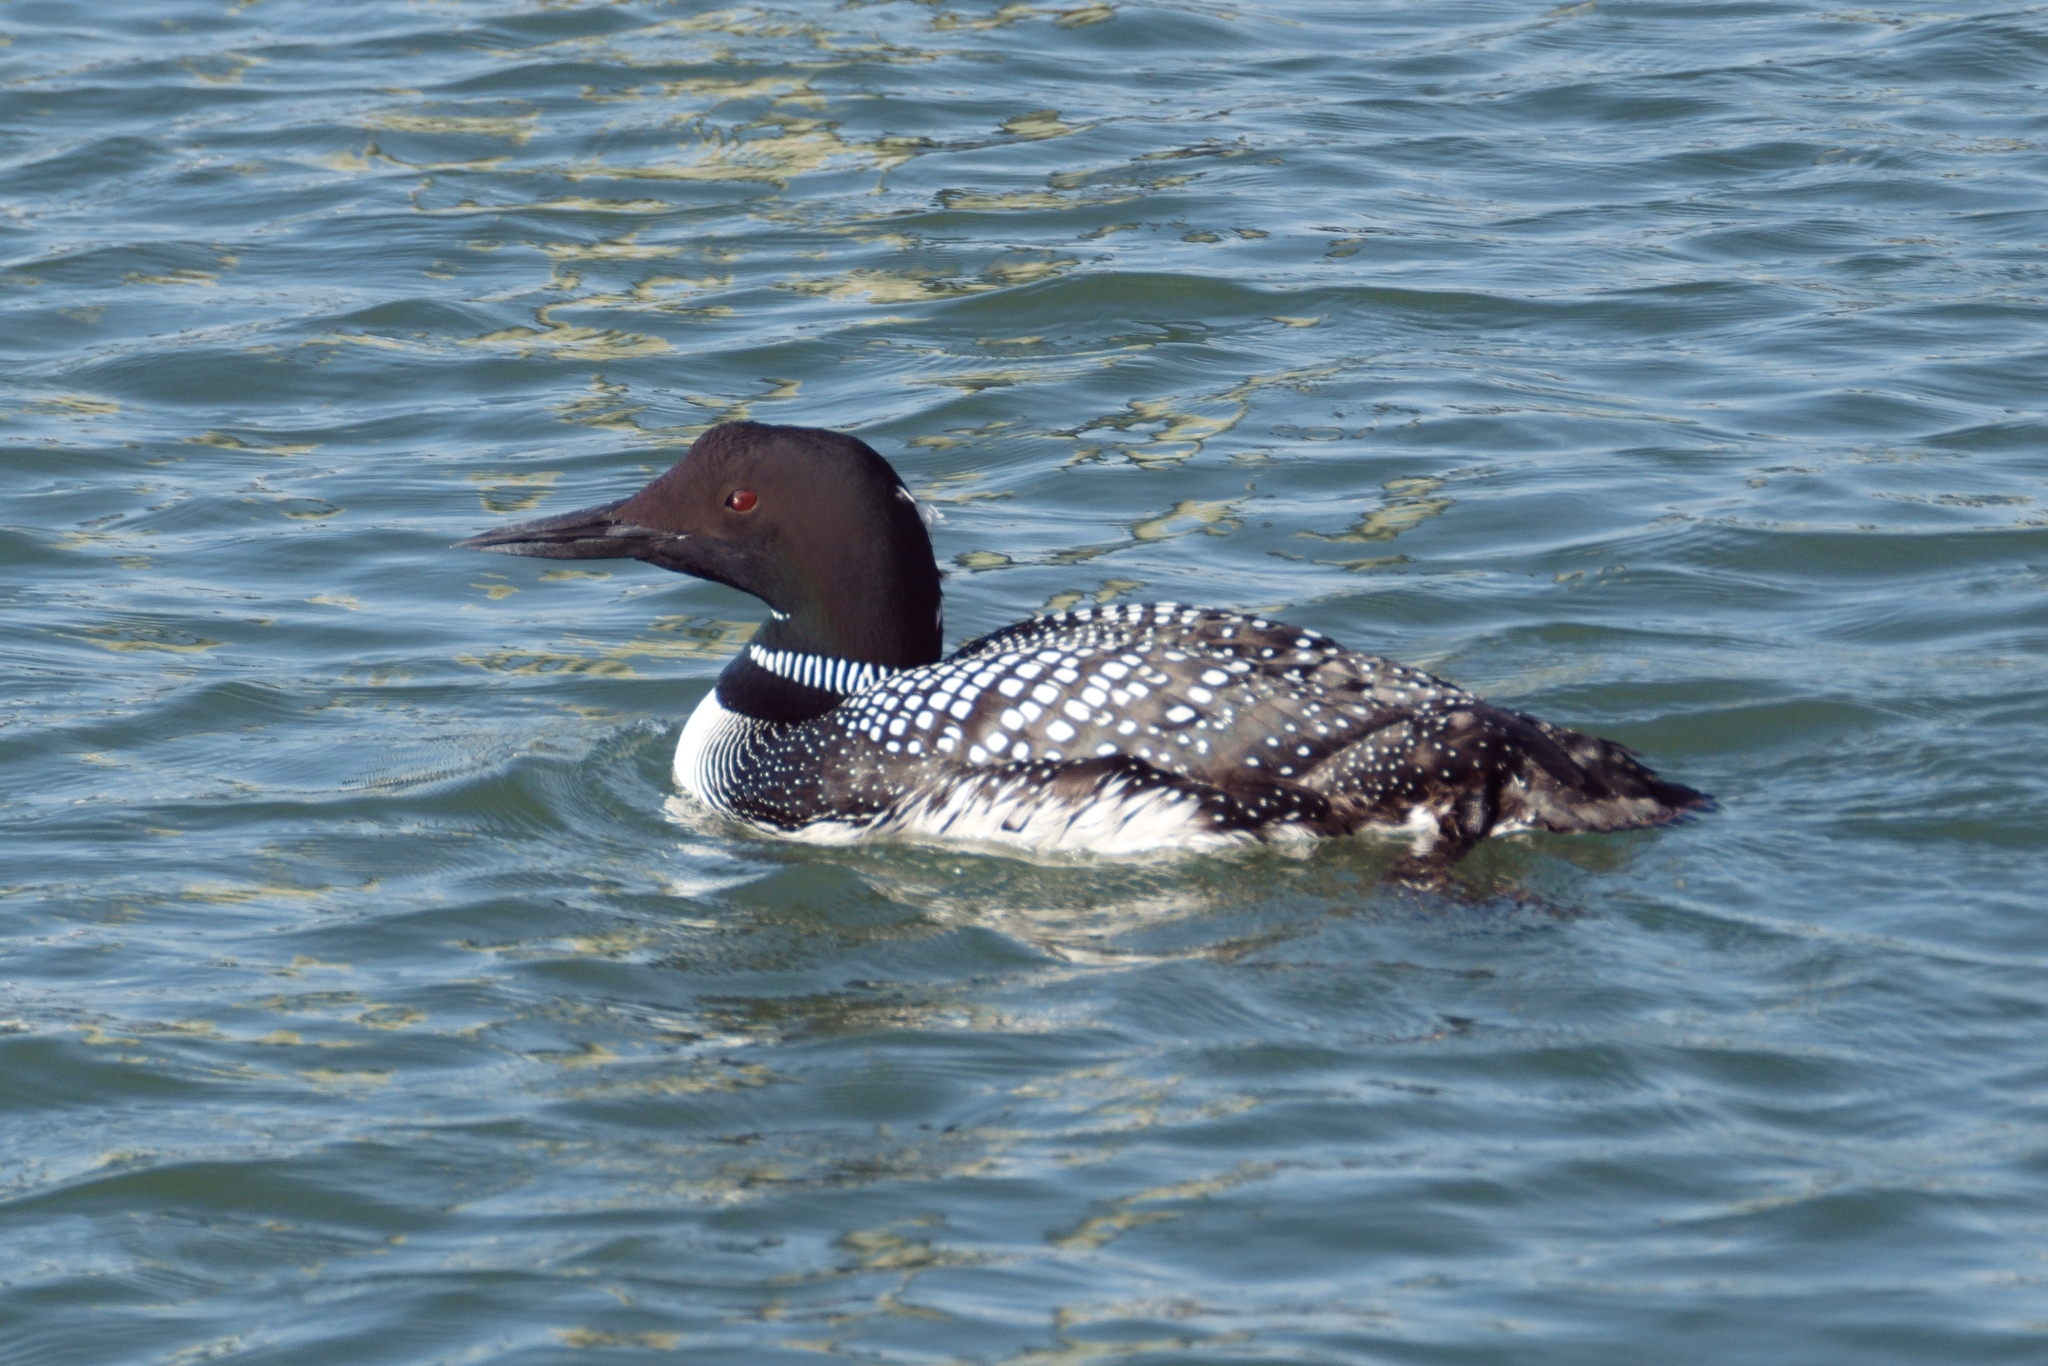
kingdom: Animalia
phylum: Chordata
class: Aves
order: Gaviiformes
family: Gaviidae
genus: Gavia
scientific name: Gavia immer
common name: Common loon
